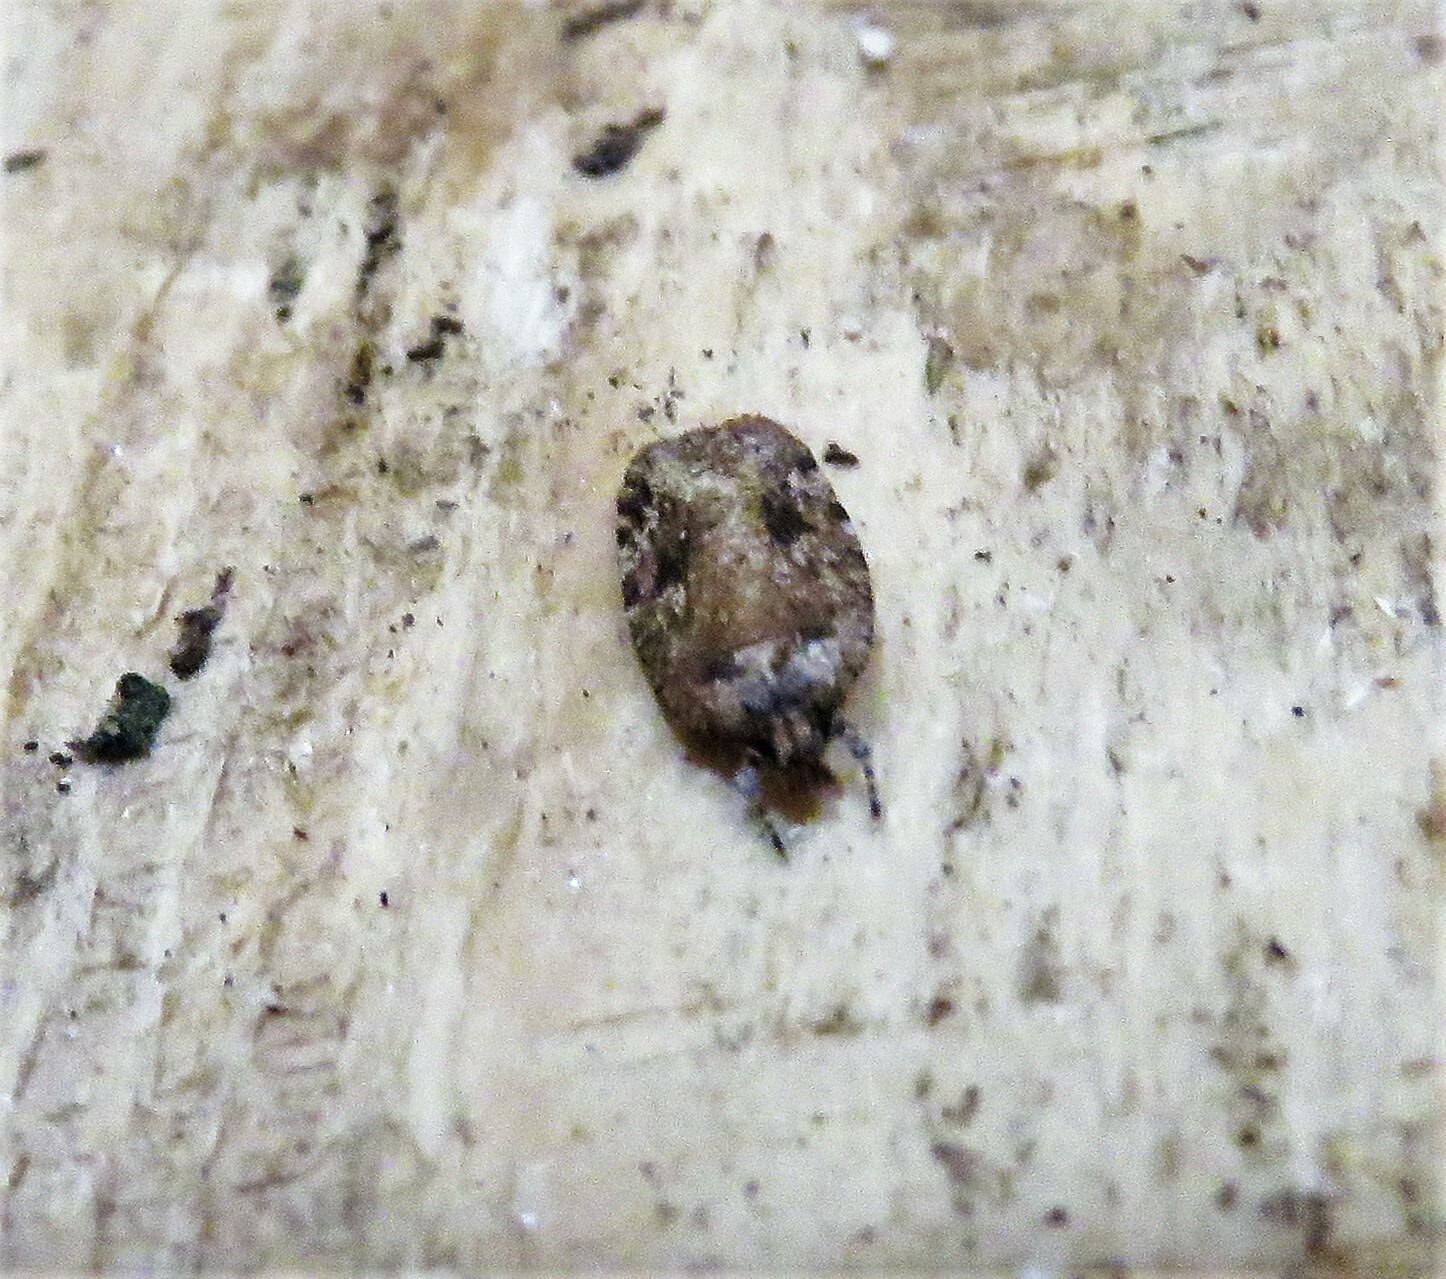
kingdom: Animalia
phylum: Arthropoda
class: Insecta
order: Lepidoptera
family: Depressariidae
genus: Agonopterix
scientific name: Agonopterix pulvipennella
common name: Goldenrod leafffolder
